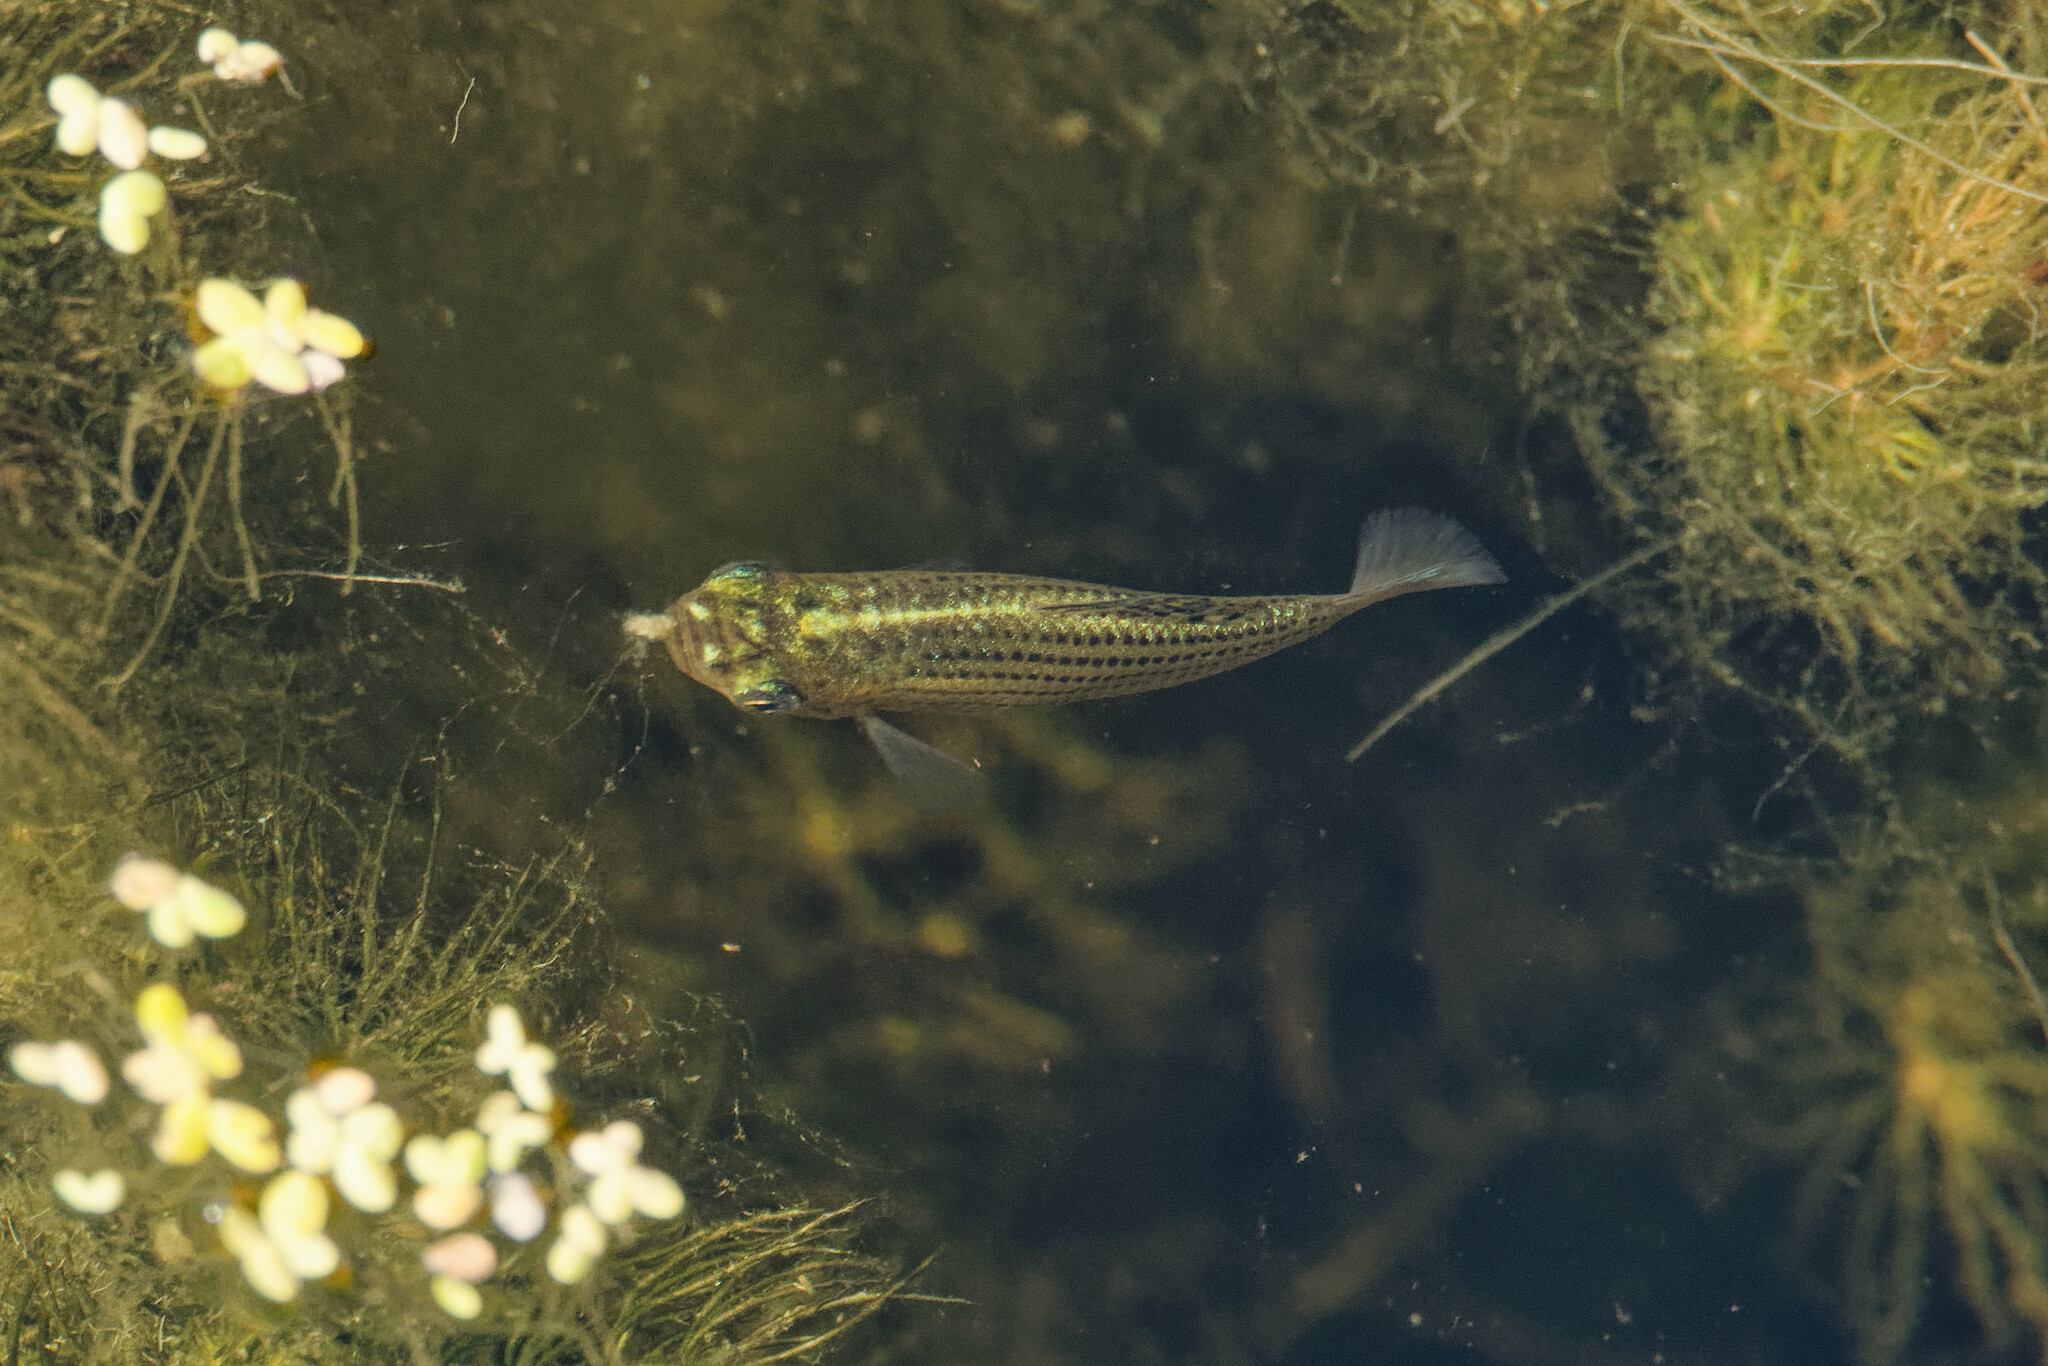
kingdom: Animalia
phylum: Chordata
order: Cyprinodontiformes
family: Poeciliidae
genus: Poecilia
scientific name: Poecilia latipinna
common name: Sailfin molly
